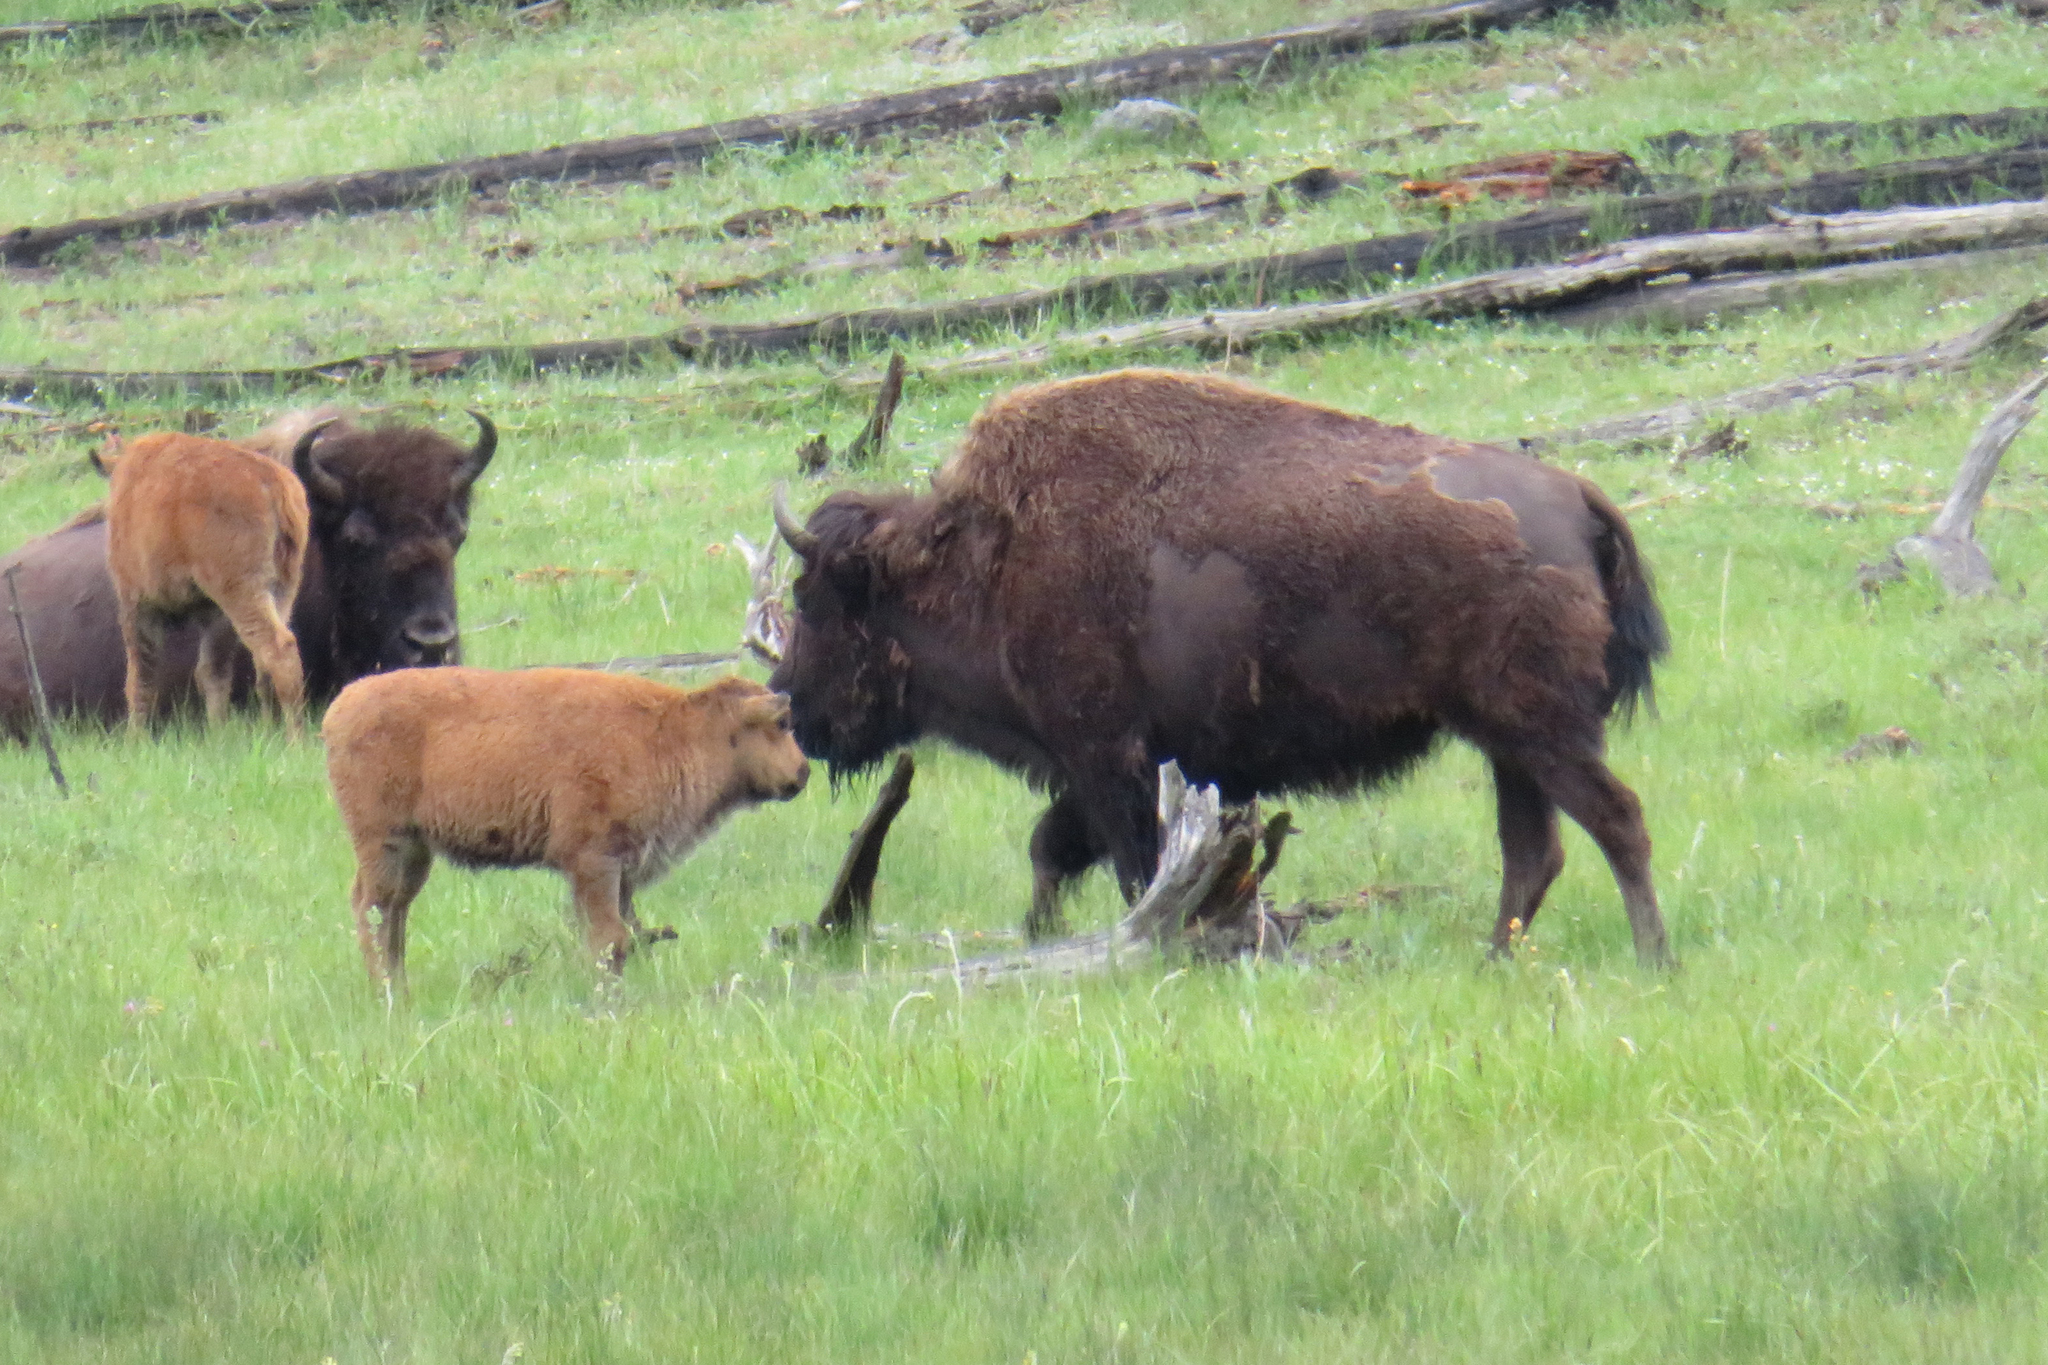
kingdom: Animalia
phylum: Chordata
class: Mammalia
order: Artiodactyla
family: Bovidae
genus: Bison
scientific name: Bison bison
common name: American bison
